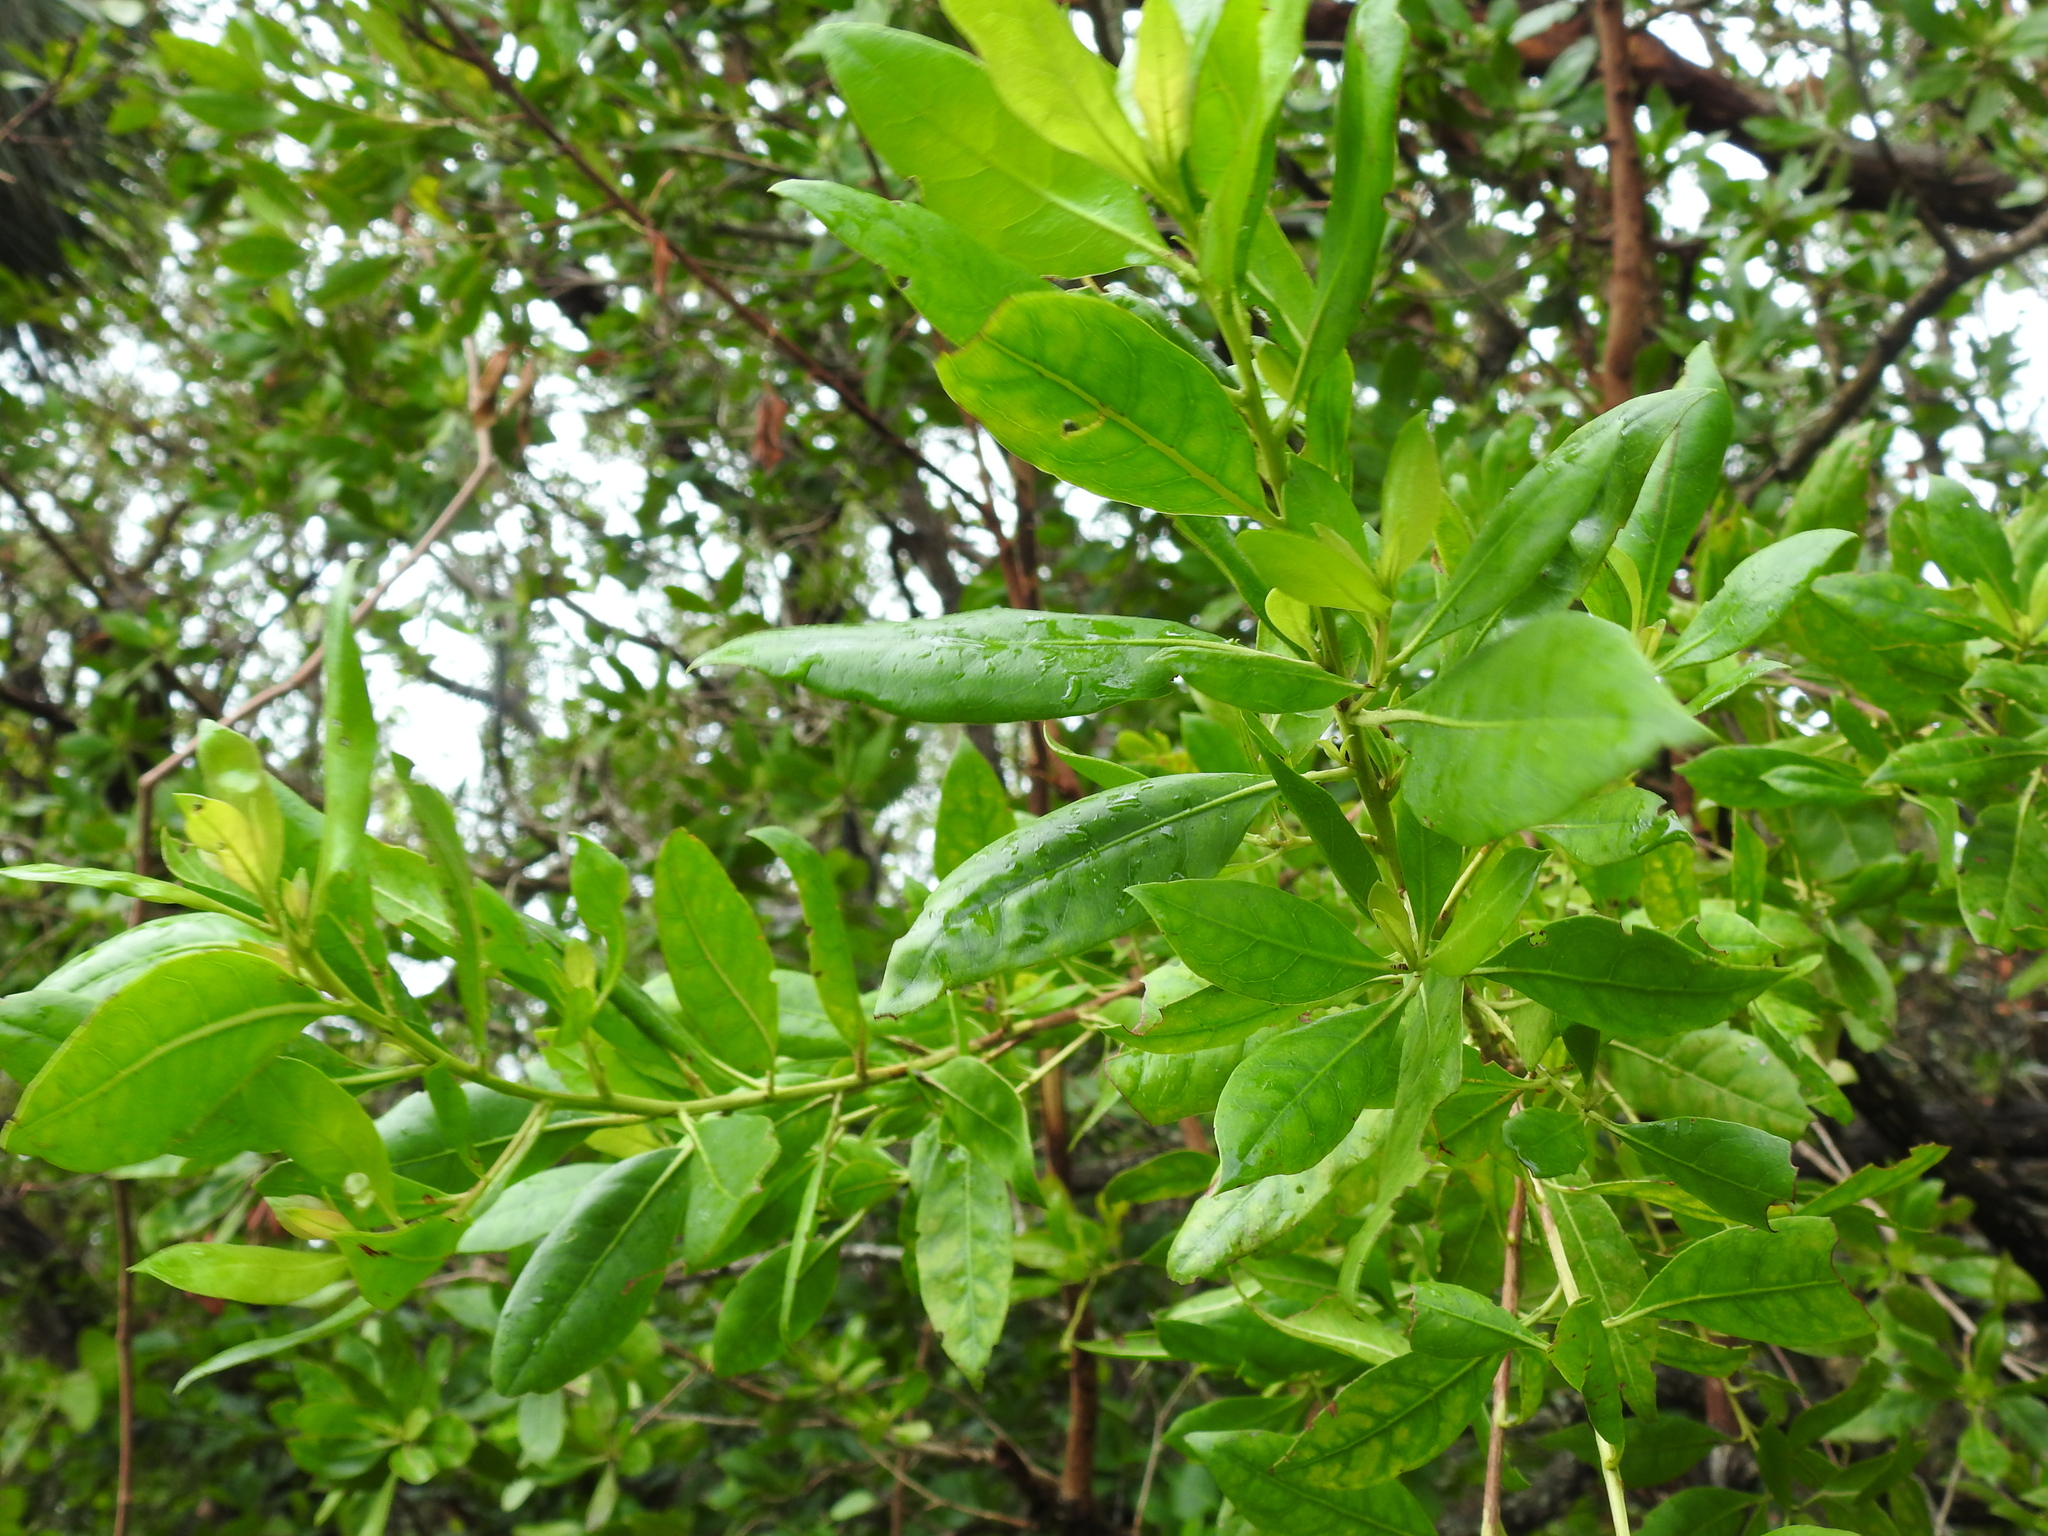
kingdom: Plantae
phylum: Tracheophyta
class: Magnoliopsida
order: Myrtales
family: Combretaceae
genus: Conocarpus
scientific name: Conocarpus erectus
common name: Button mangrove
